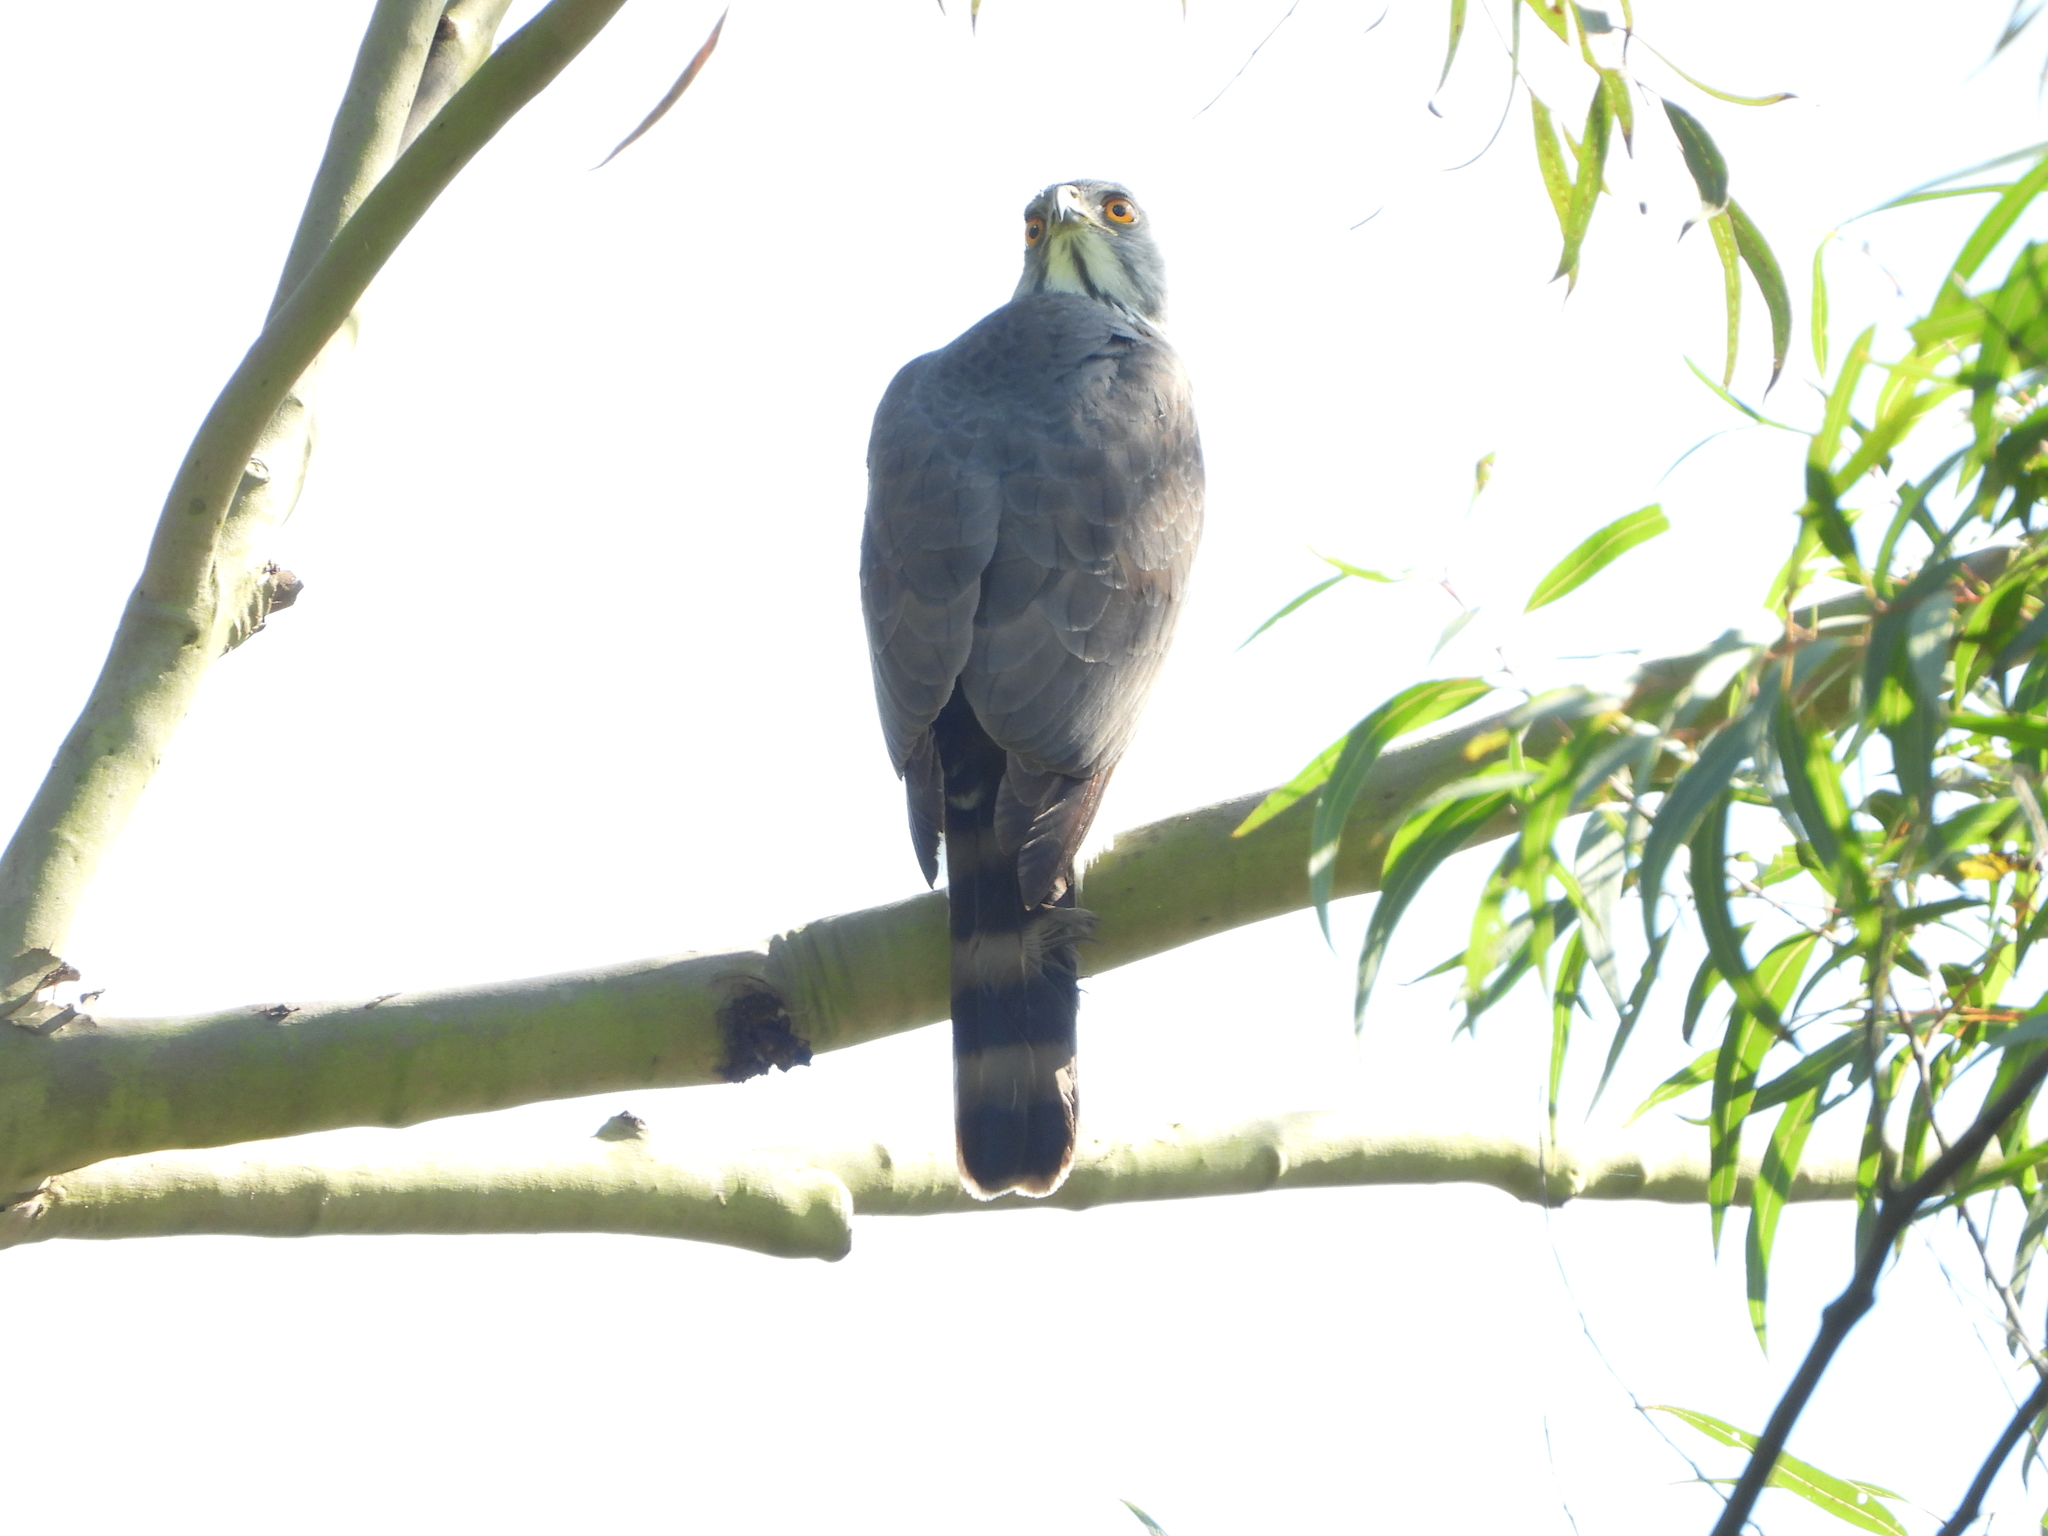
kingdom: Animalia
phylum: Chordata
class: Aves
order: Accipitriformes
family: Accipitridae
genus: Accipiter
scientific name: Accipiter trivirgatus
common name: Crested goshawk
